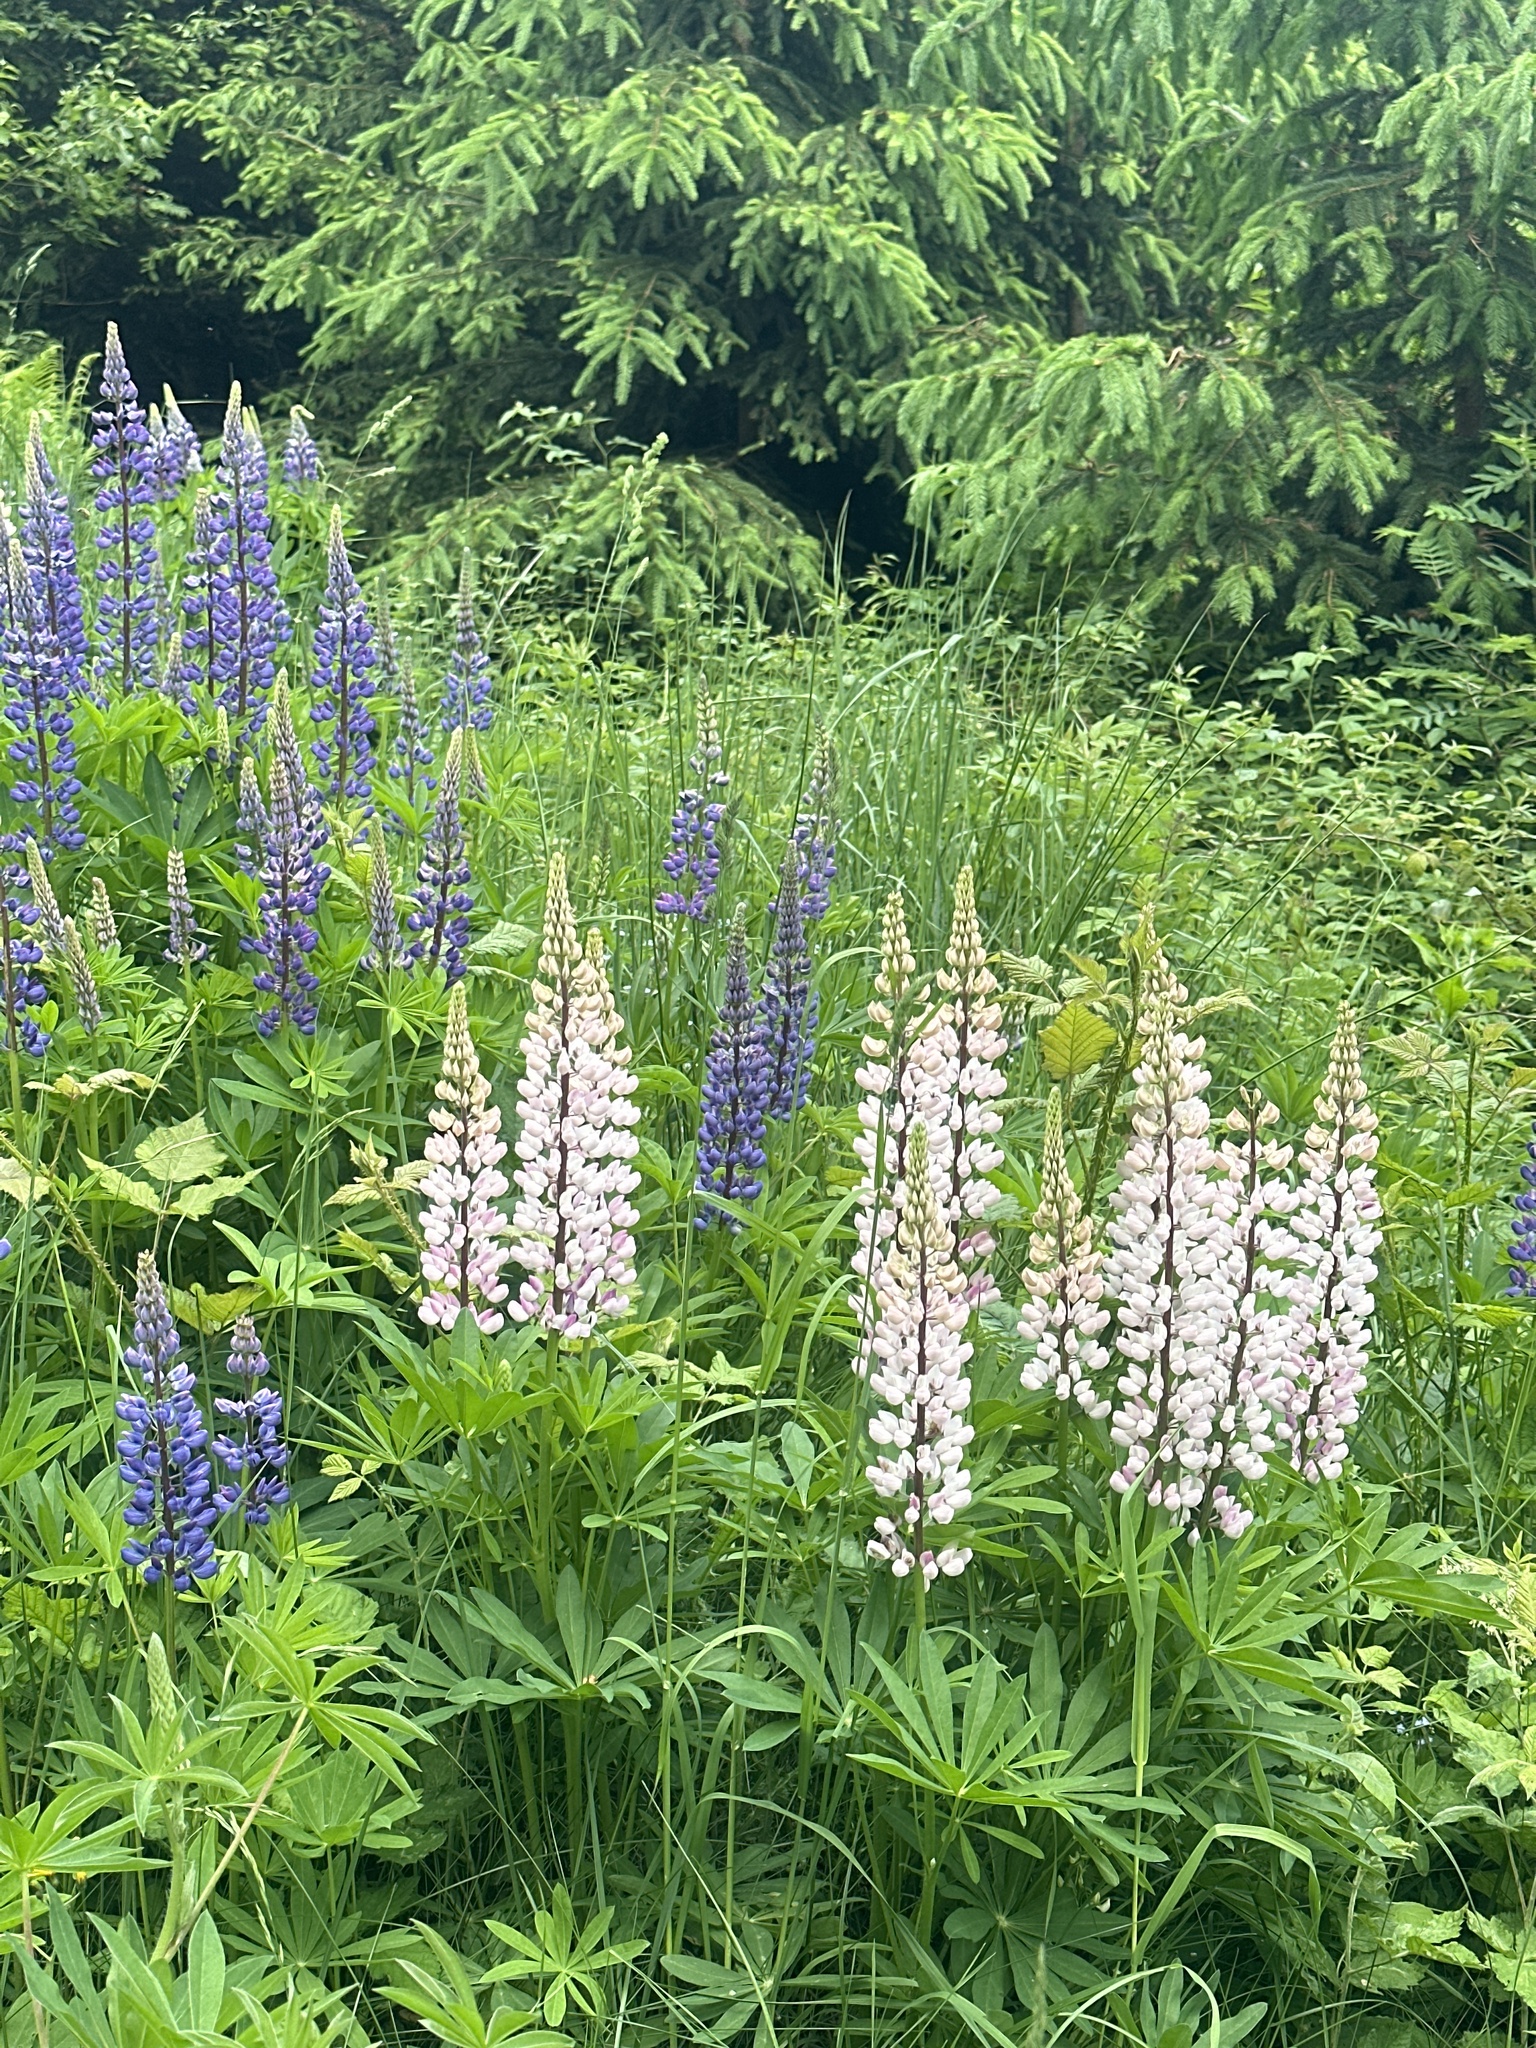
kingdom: Plantae
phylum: Tracheophyta
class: Magnoliopsida
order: Fabales
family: Fabaceae
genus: Lupinus
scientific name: Lupinus polyphyllus
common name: Garden lupin
